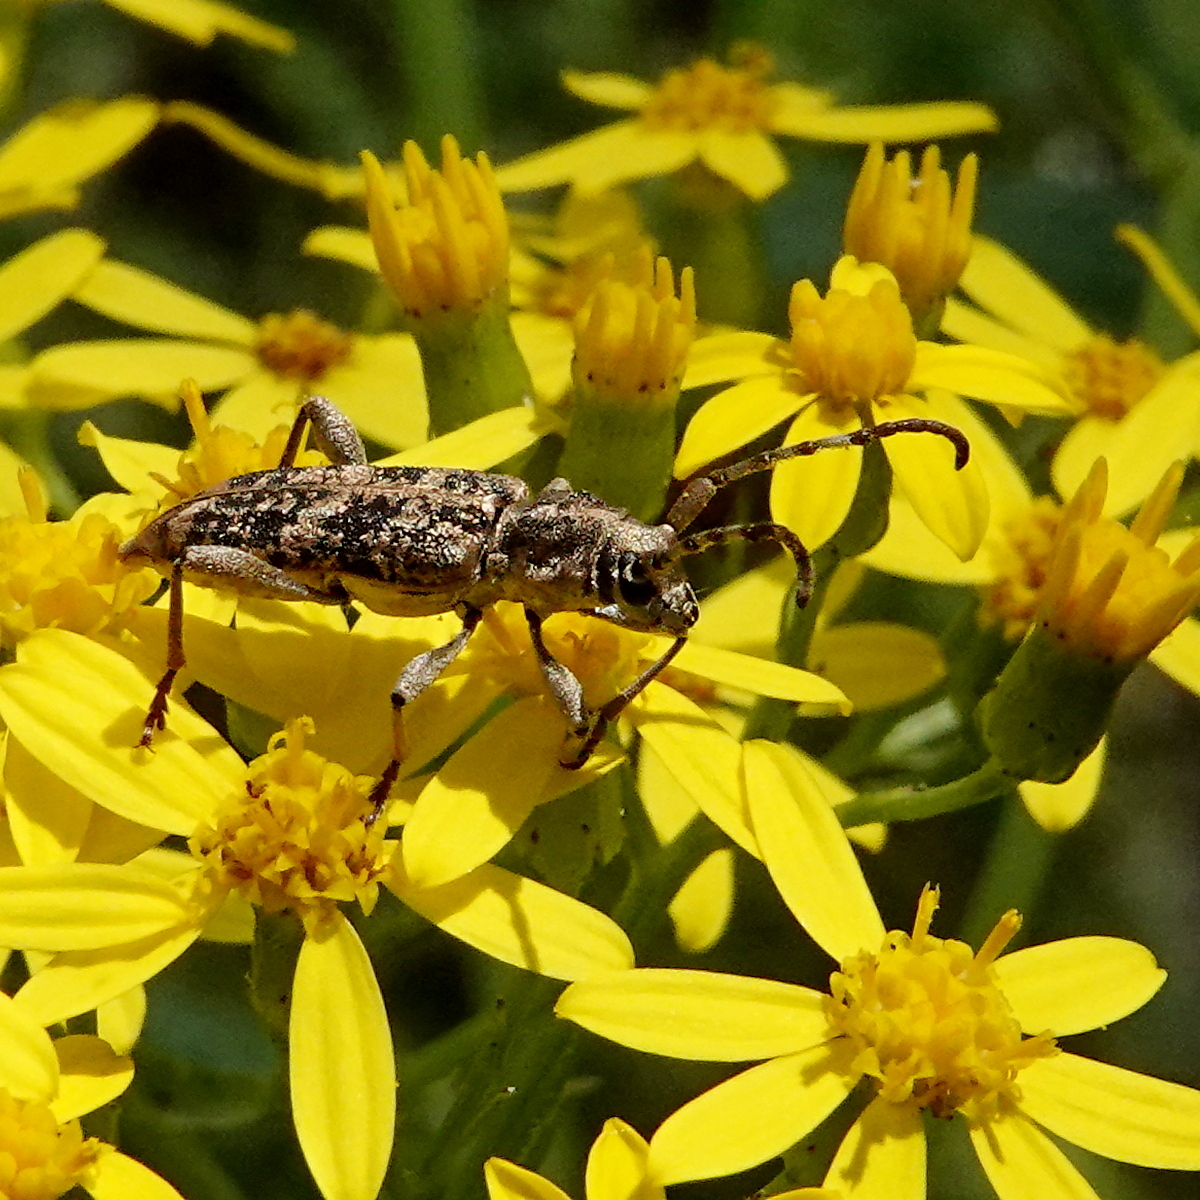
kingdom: Animalia
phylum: Arthropoda
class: Insecta
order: Coleoptera
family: Cerambycidae
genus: Pempsamacra
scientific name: Pempsamacra dispersa
